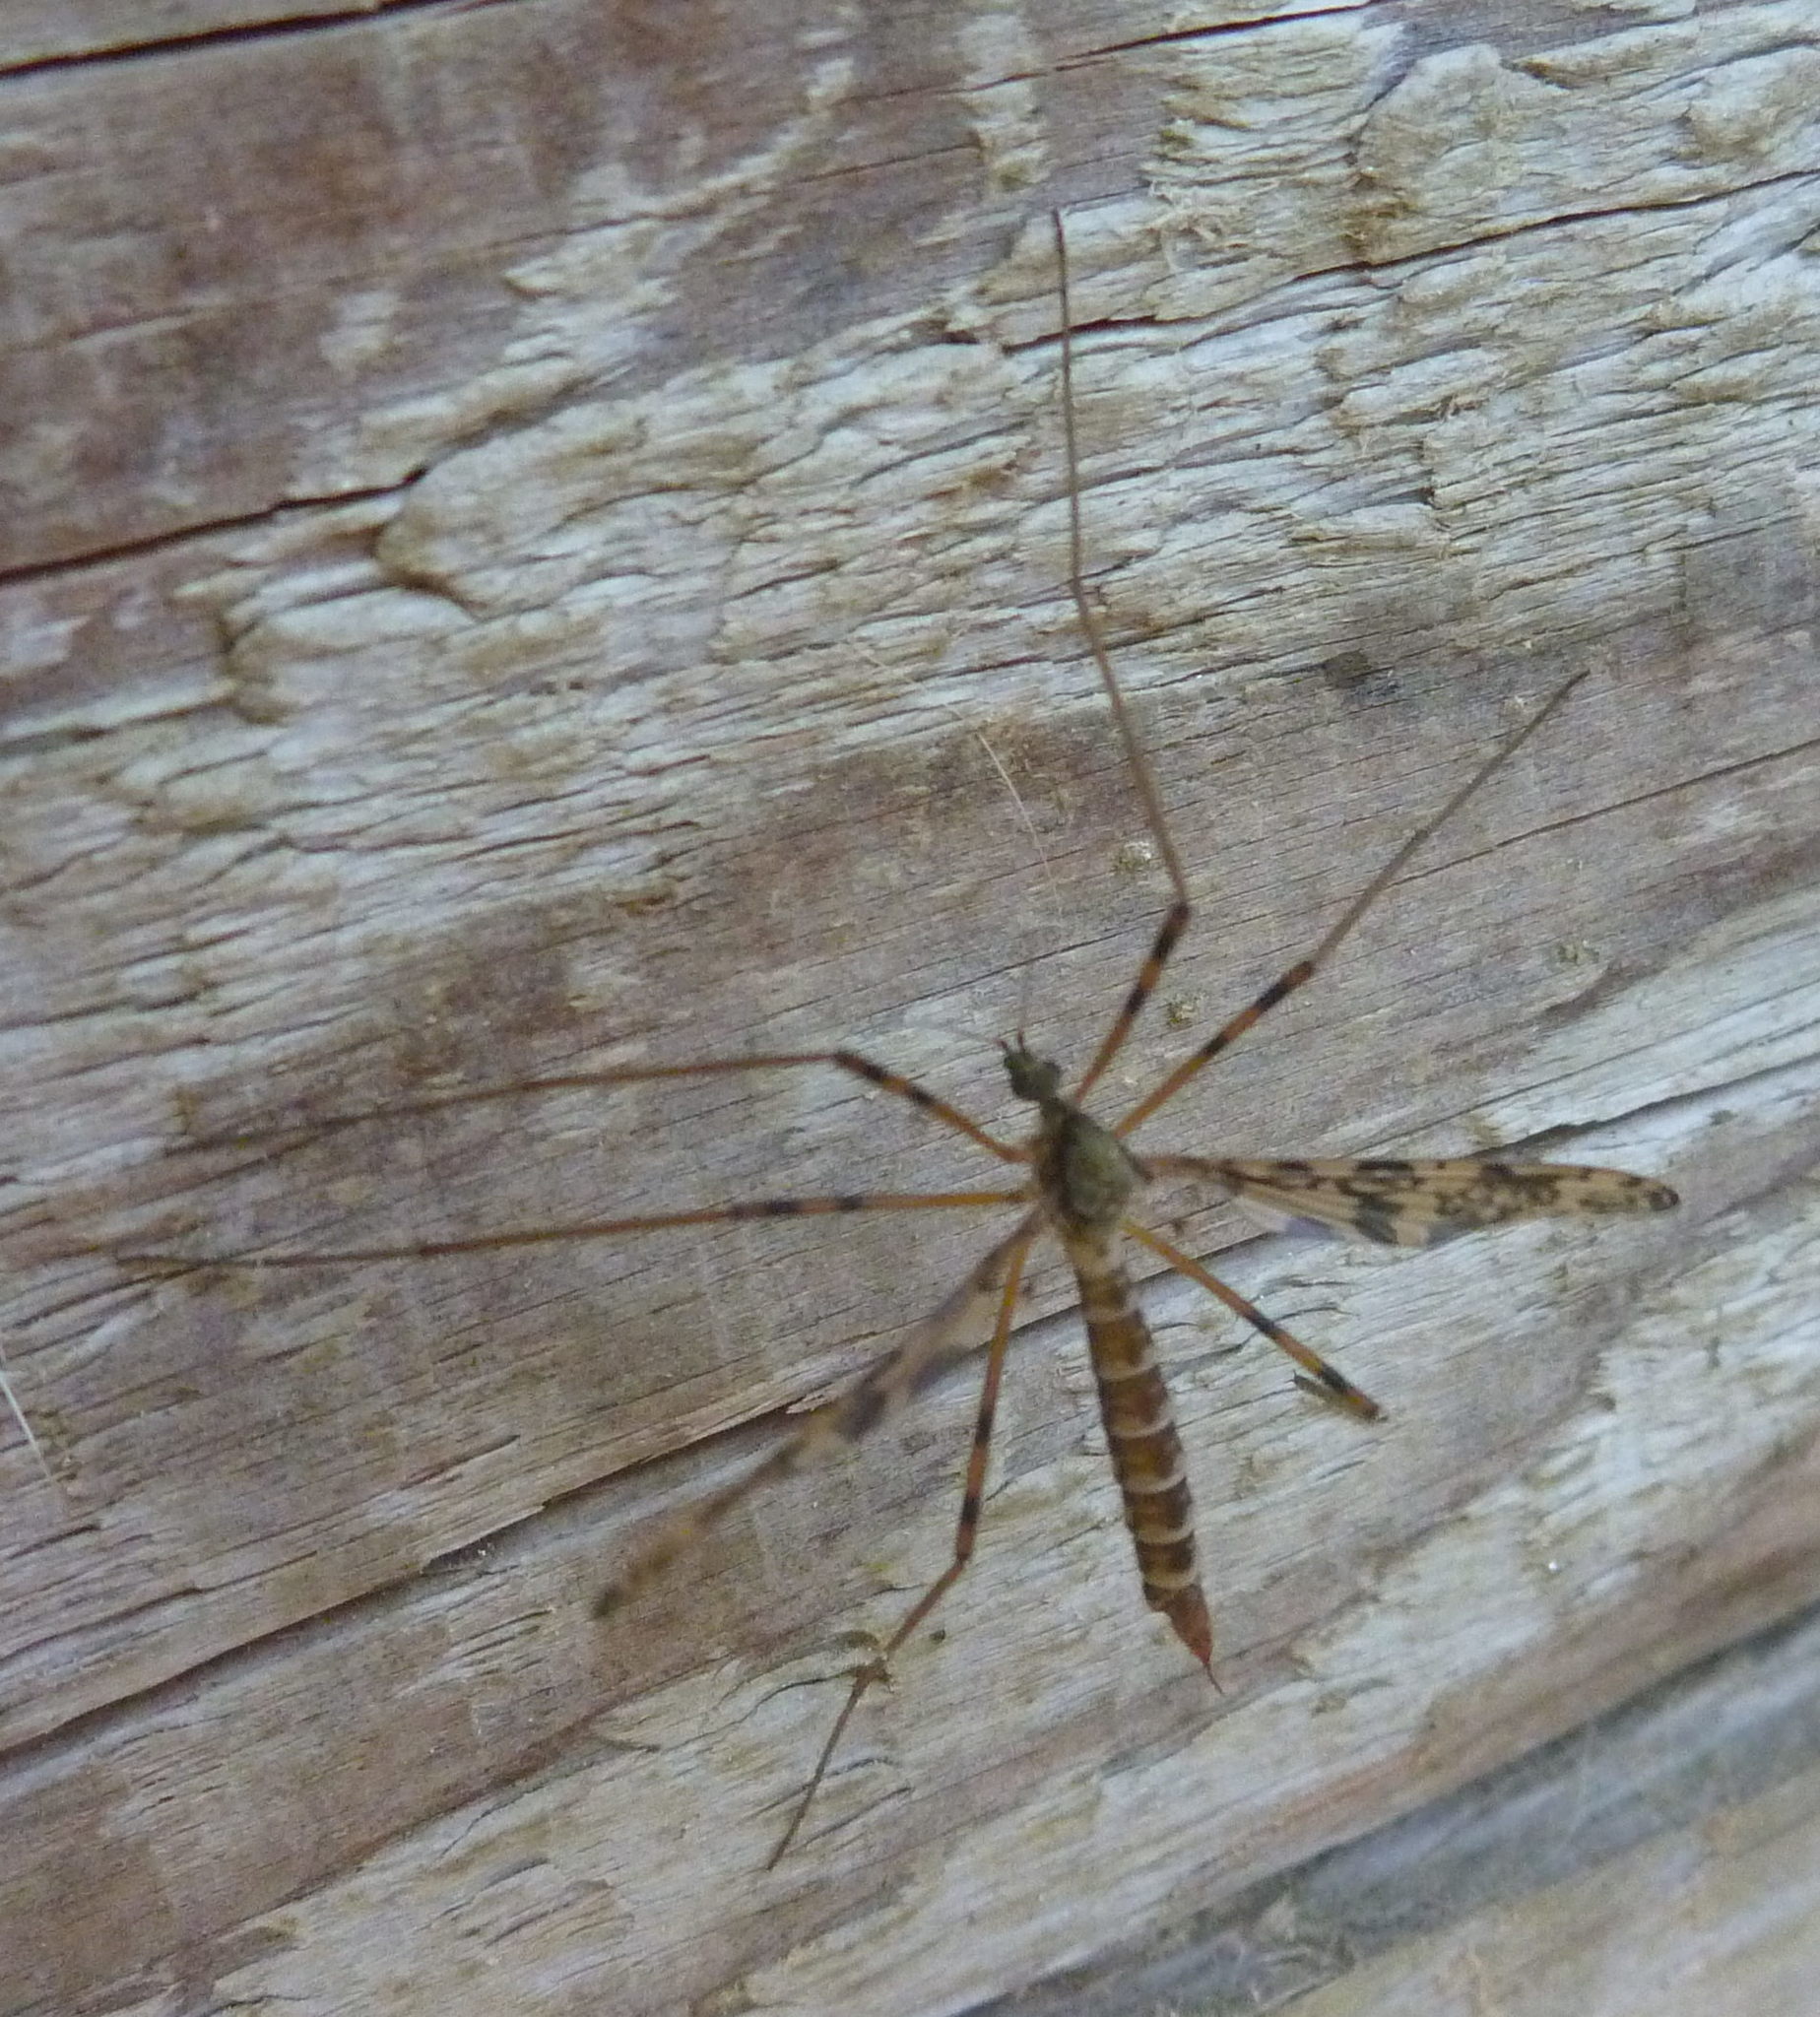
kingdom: Animalia
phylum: Arthropoda
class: Insecta
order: Diptera
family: Limoniidae
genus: Epiphragma
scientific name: Epiphragma ocellare
